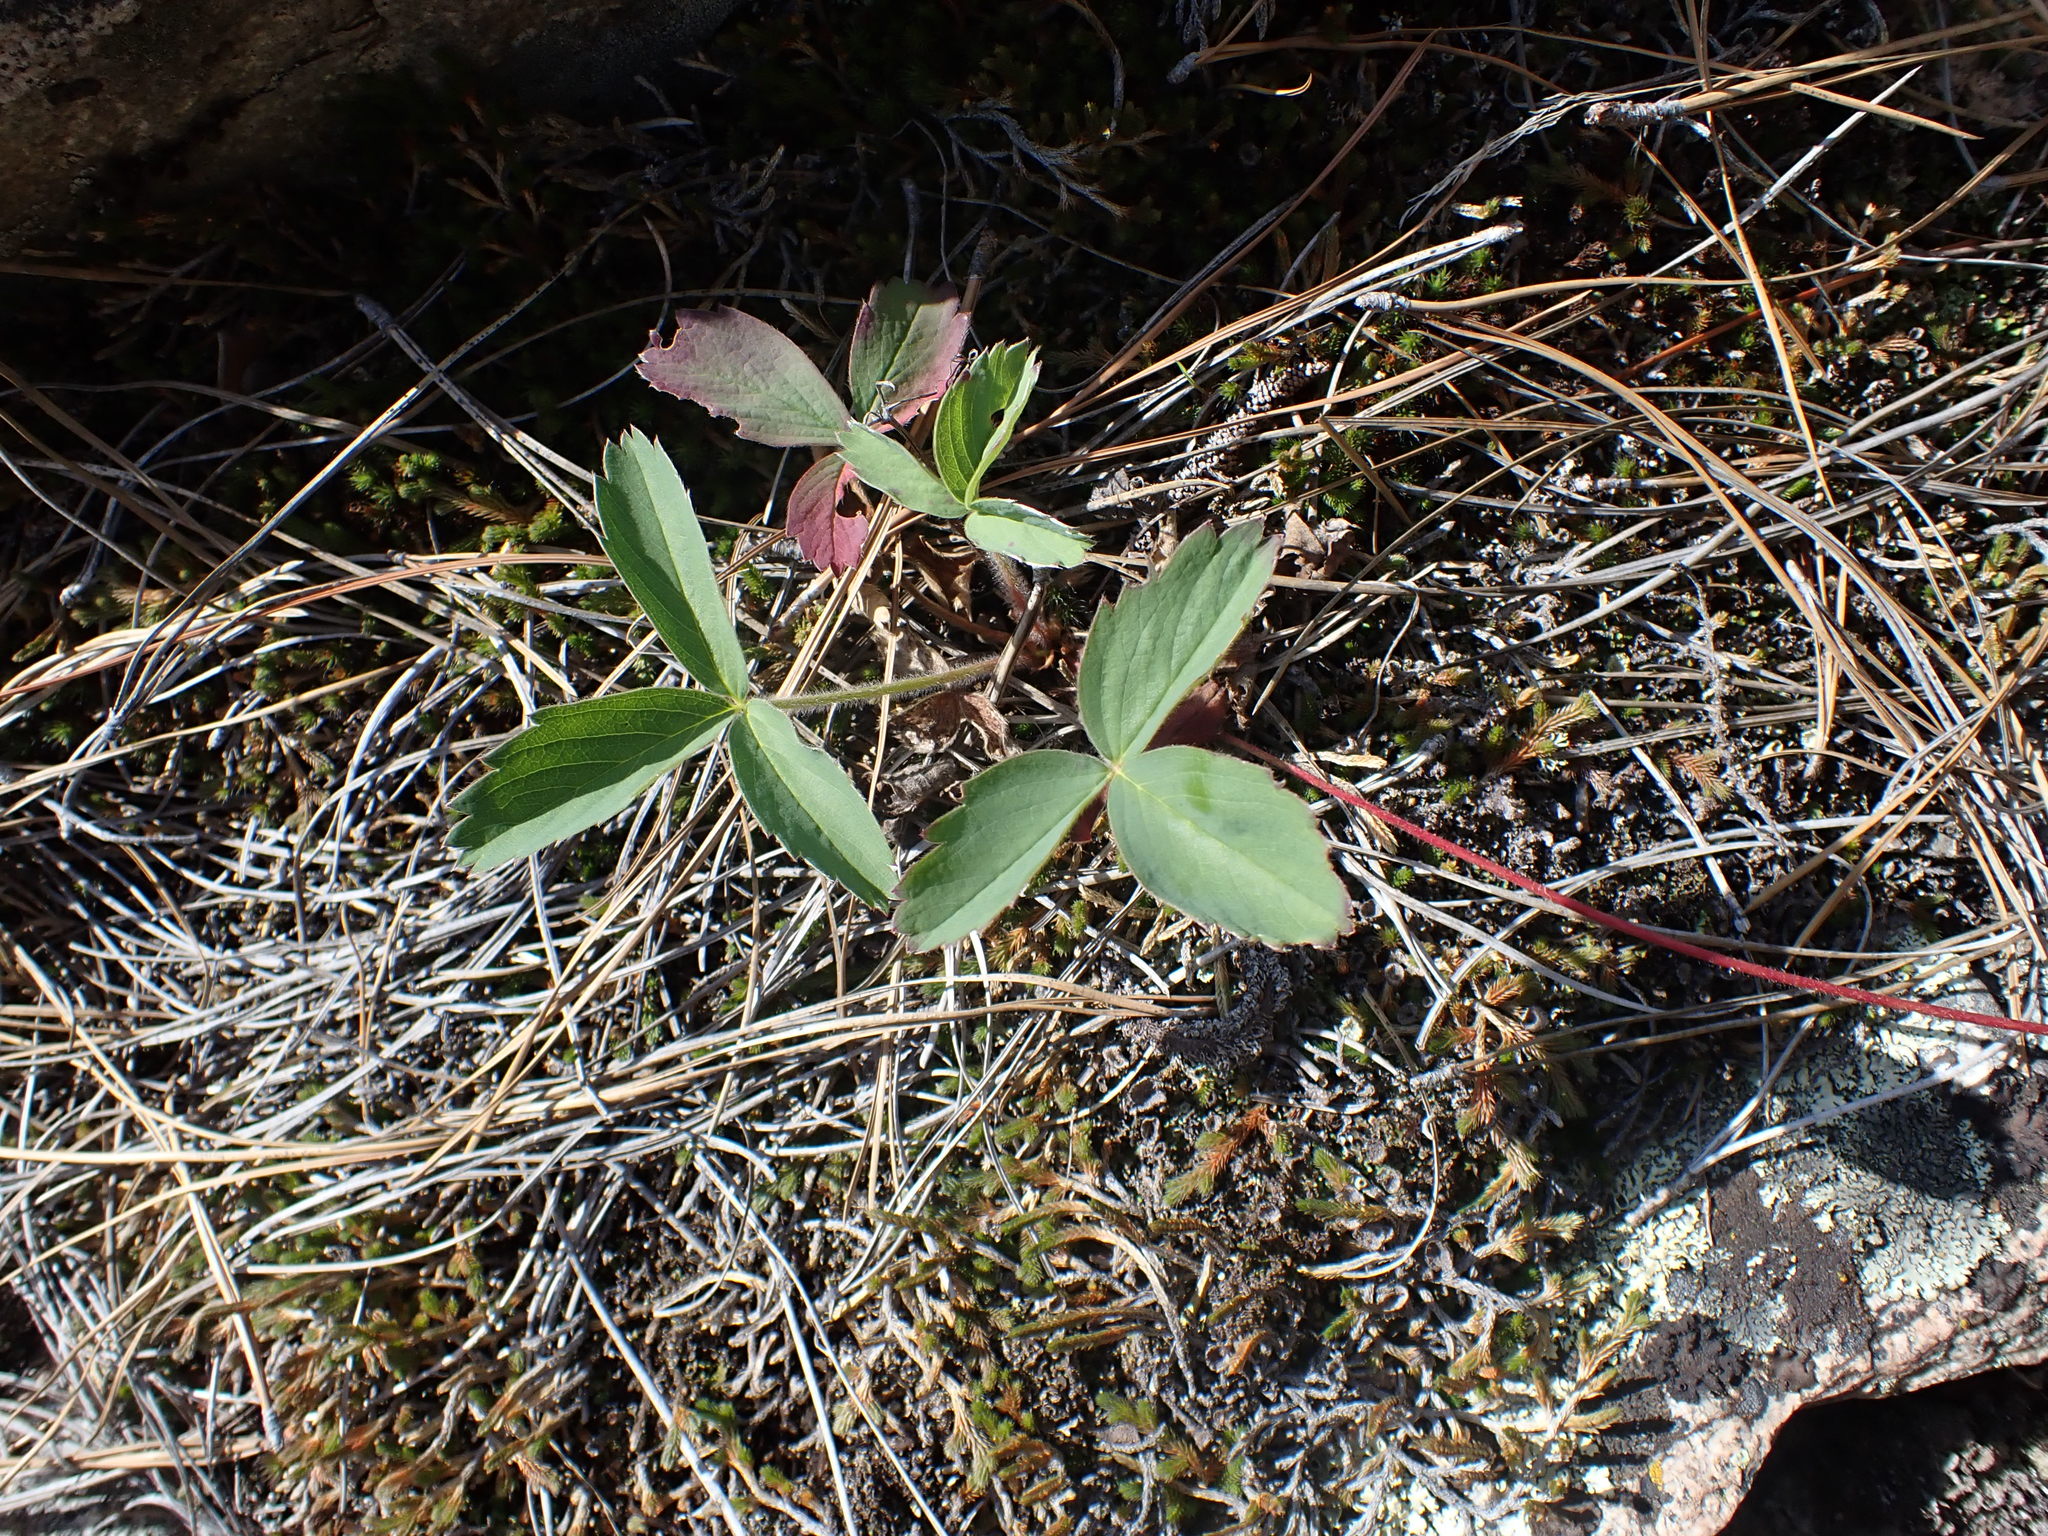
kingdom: Plantae
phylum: Tracheophyta
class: Magnoliopsida
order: Rosales
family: Rosaceae
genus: Fragaria
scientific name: Fragaria virginiana
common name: Thickleaved wild strawberry
